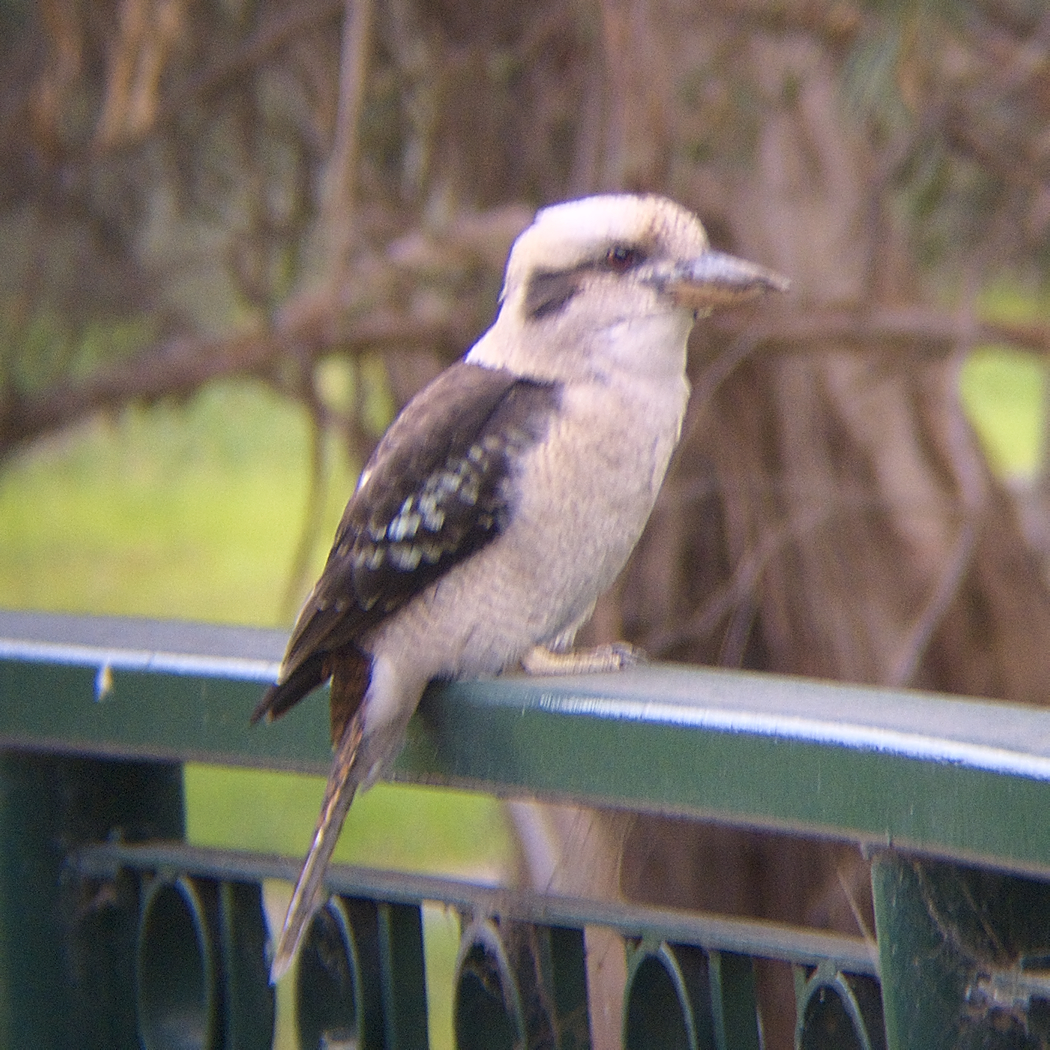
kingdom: Animalia
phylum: Chordata
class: Aves
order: Coraciiformes
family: Alcedinidae
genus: Dacelo
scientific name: Dacelo novaeguineae
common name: Laughing kookaburra
